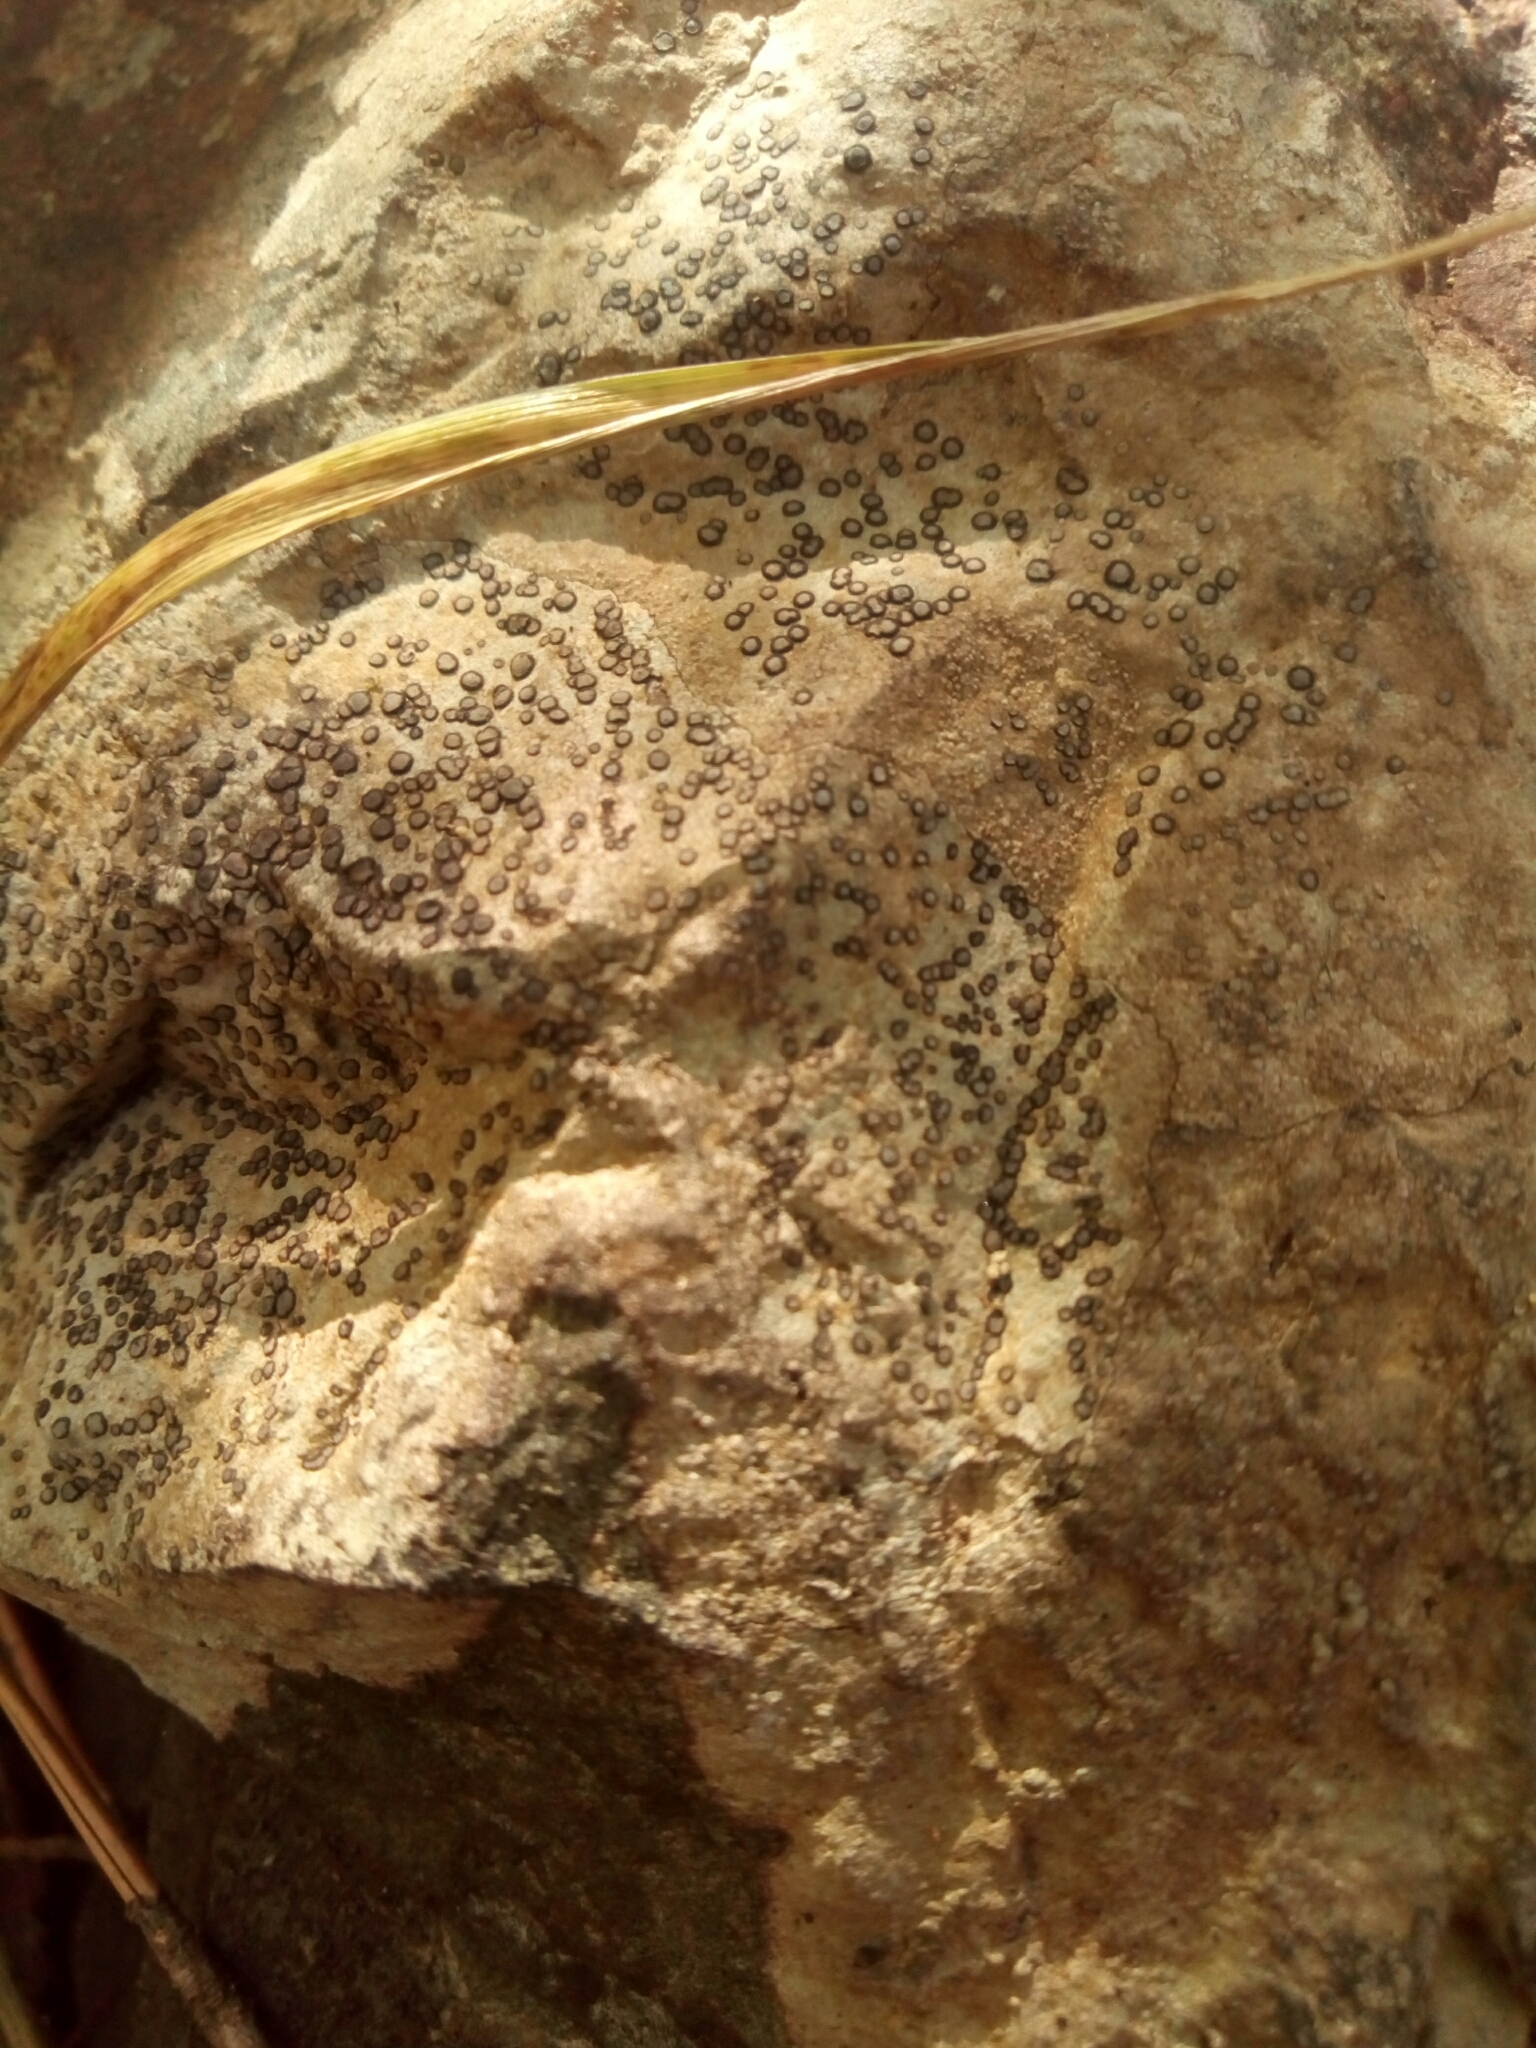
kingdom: Fungi
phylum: Ascomycota
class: Lecanoromycetes
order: Lecideales
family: Lecideaceae
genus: Porpidia
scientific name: Porpidia albocaerulescens
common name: Smokey-eyed boulder lichen
